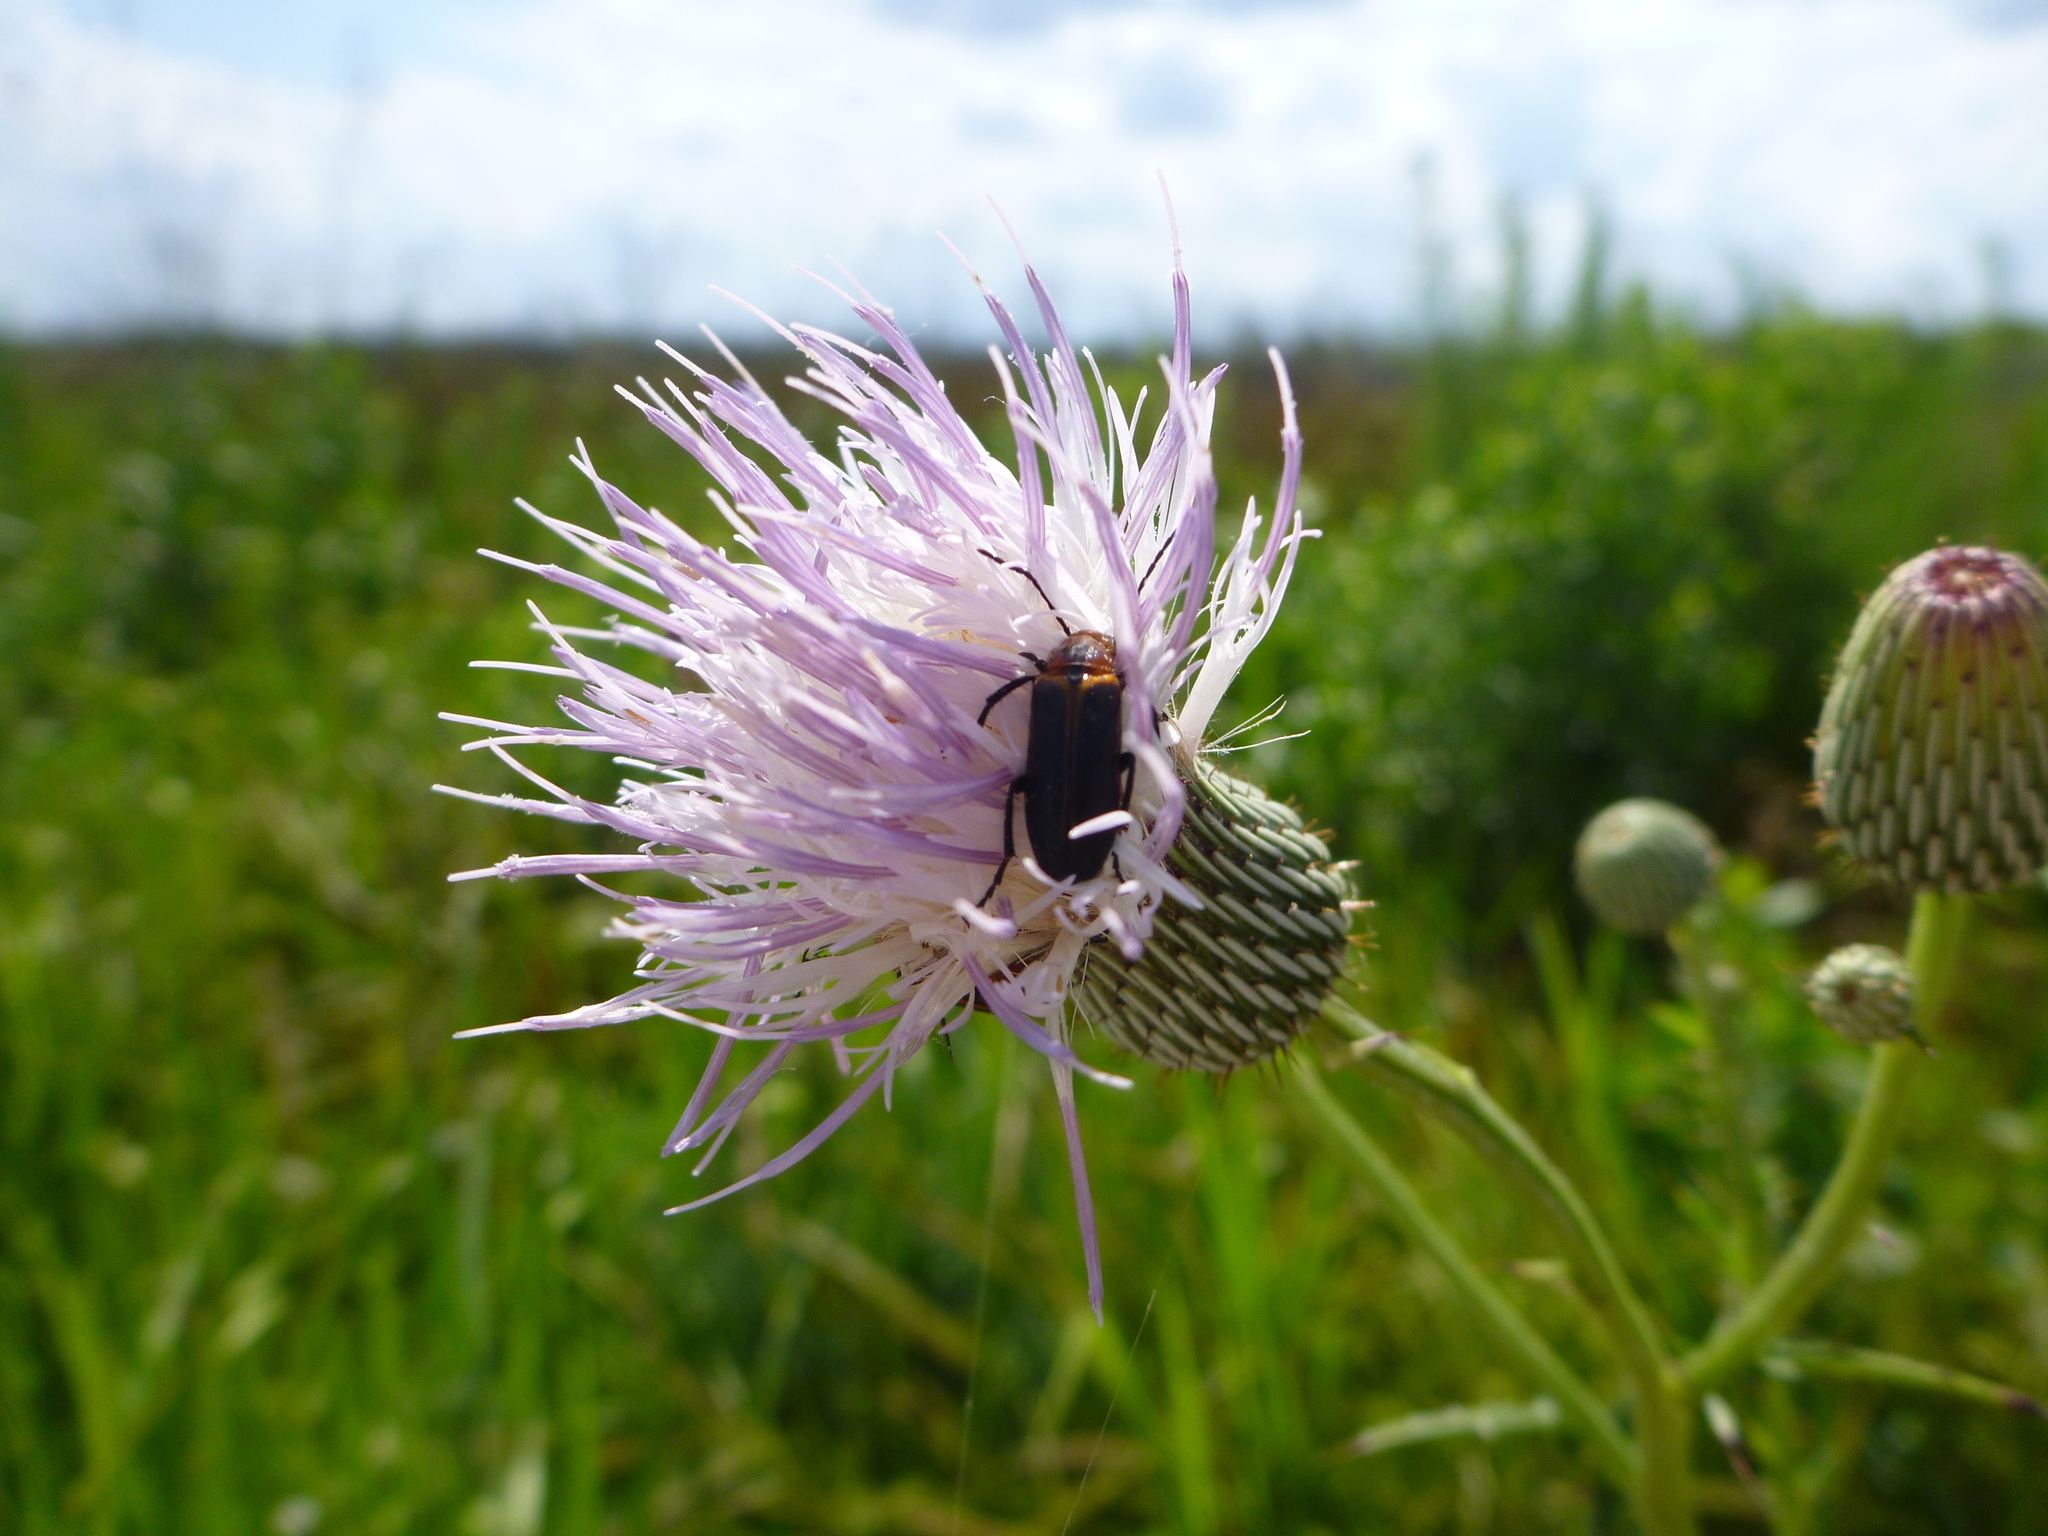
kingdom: Animalia
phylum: Arthropoda
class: Insecta
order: Coleoptera
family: Meloidae
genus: Nemognatha
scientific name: Nemognatha piazata
